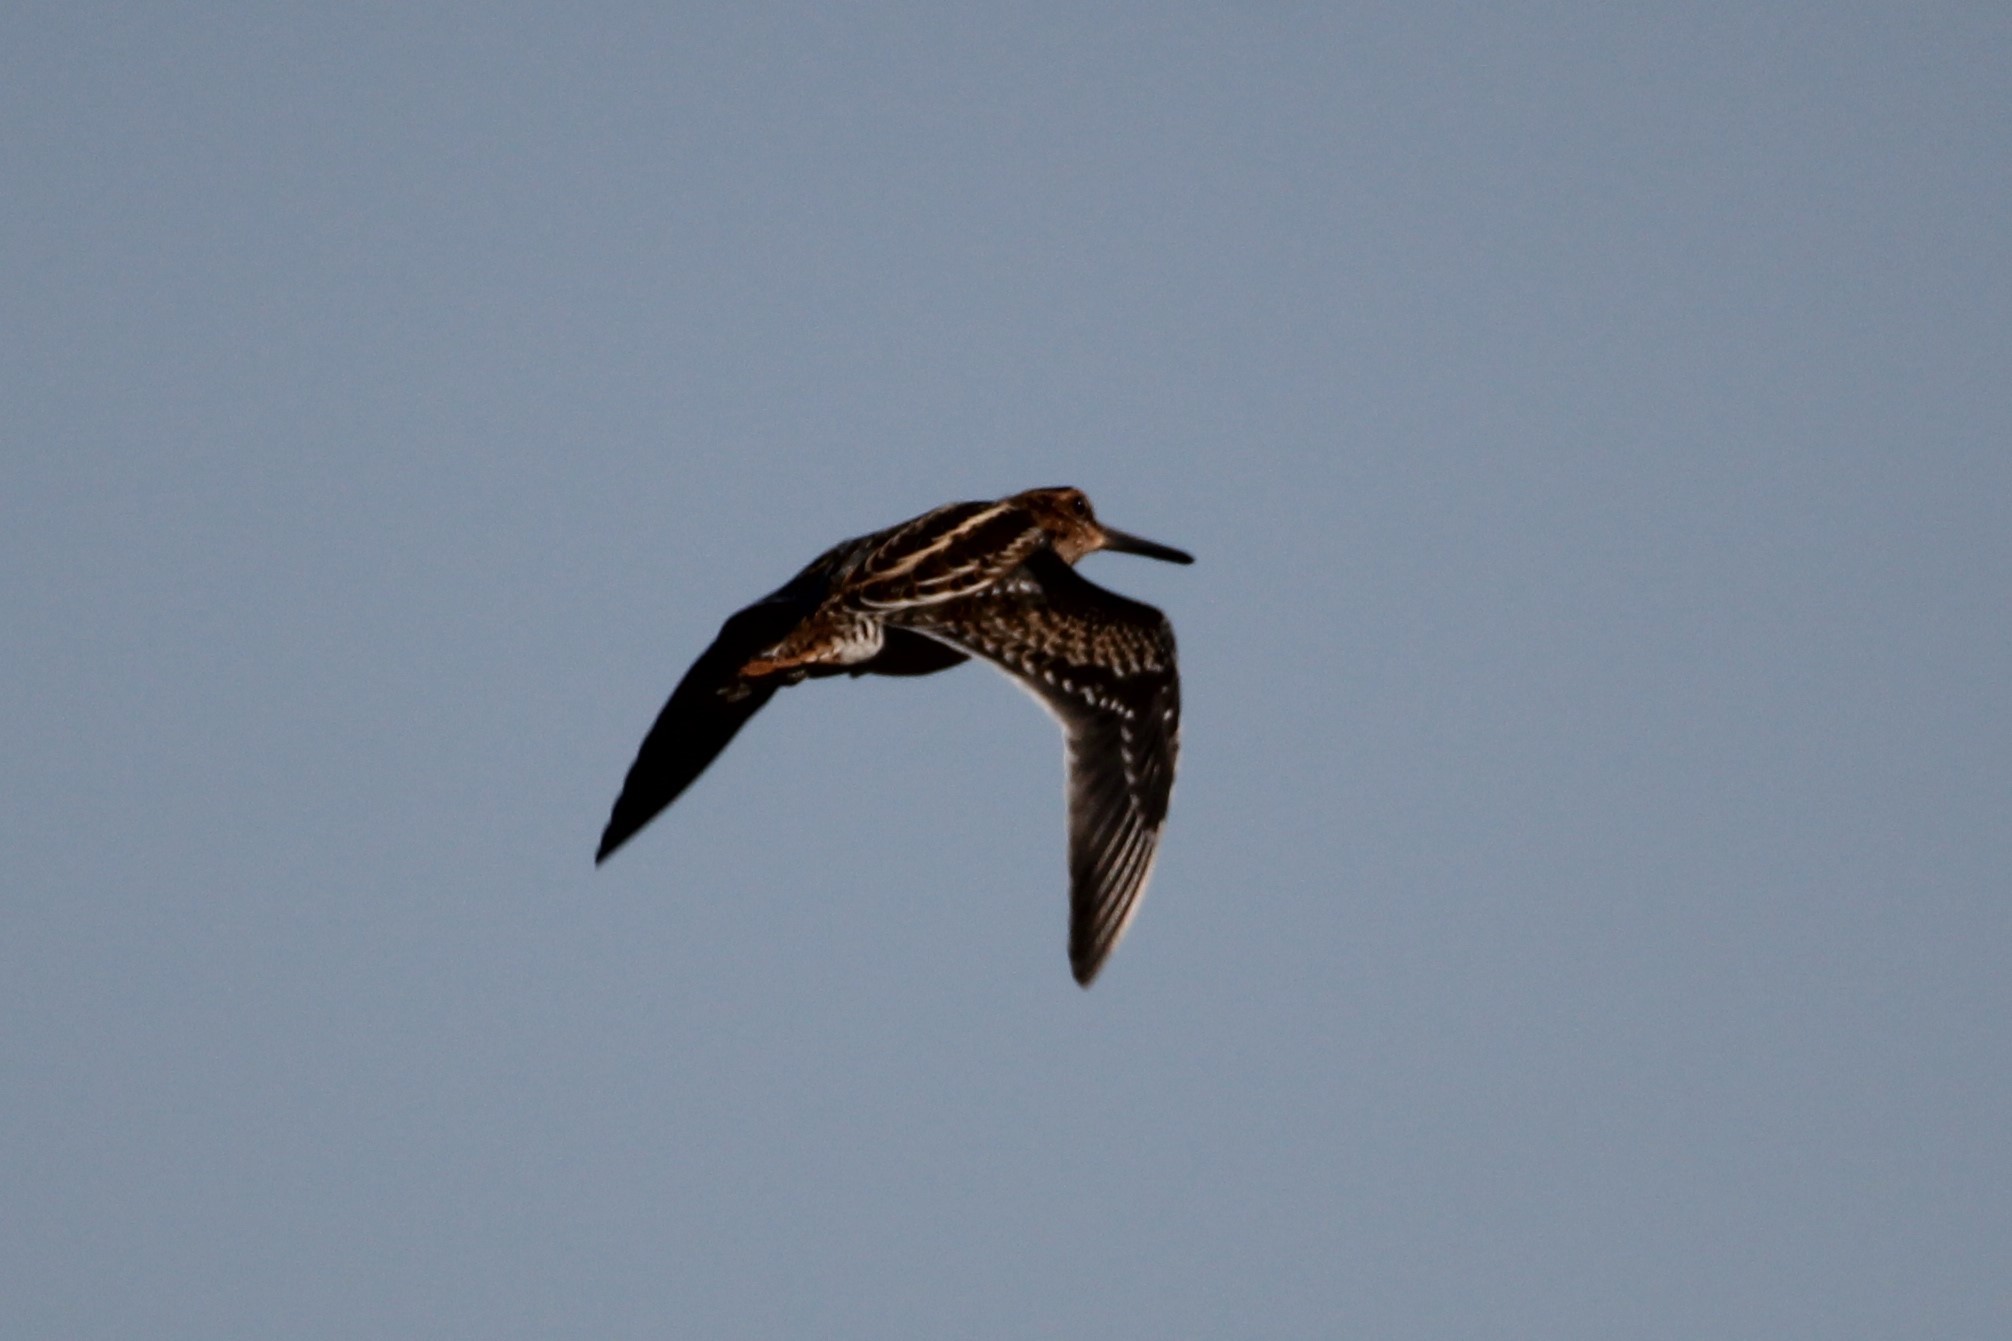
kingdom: Animalia
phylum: Chordata
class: Aves
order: Charadriiformes
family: Scolopacidae
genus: Gallinago
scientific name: Gallinago delicata
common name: Wilson's snipe
